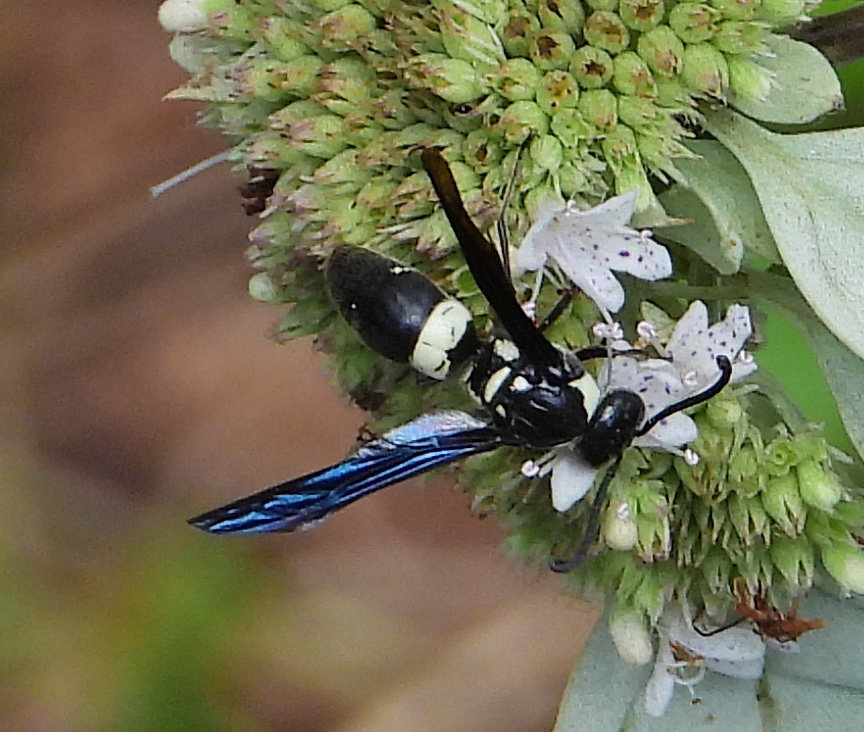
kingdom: Animalia
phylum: Arthropoda
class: Insecta
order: Hymenoptera
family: Eumenidae
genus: Monobia
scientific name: Monobia quadridens
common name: Four-toothed mason wasp
